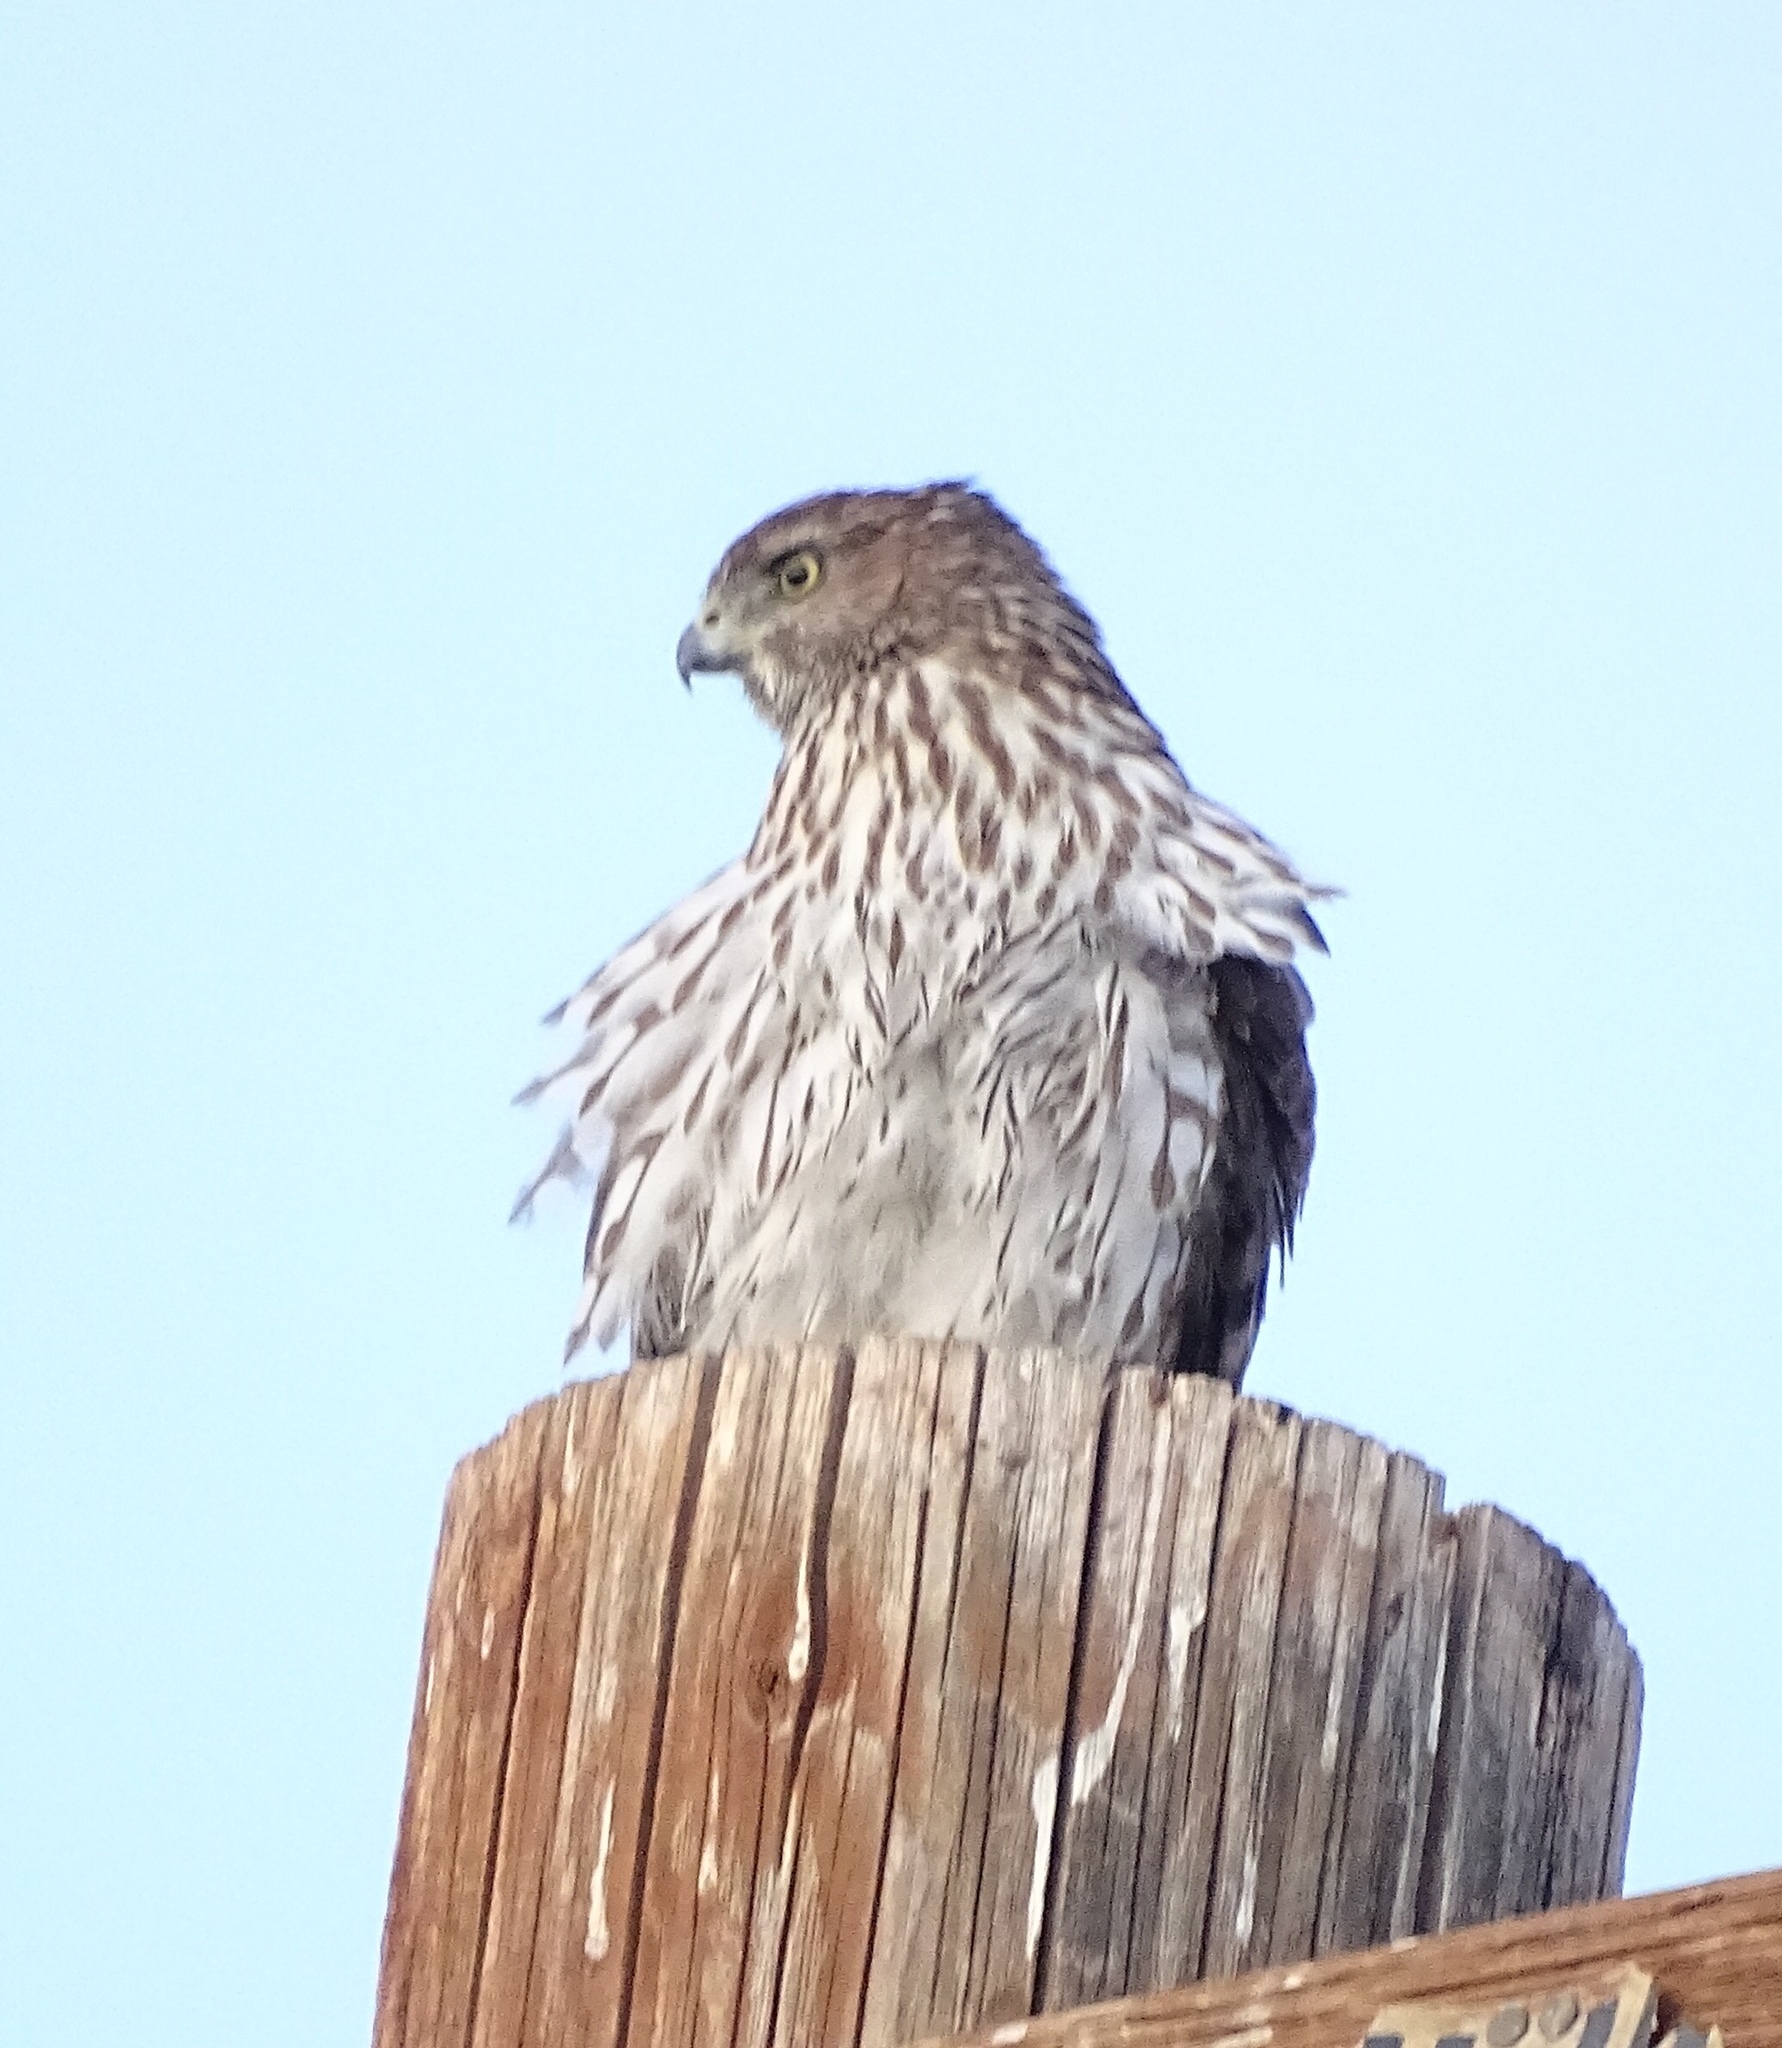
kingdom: Animalia
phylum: Chordata
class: Aves
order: Accipitriformes
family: Accipitridae
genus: Accipiter
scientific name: Accipiter cooperii
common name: Cooper's hawk
